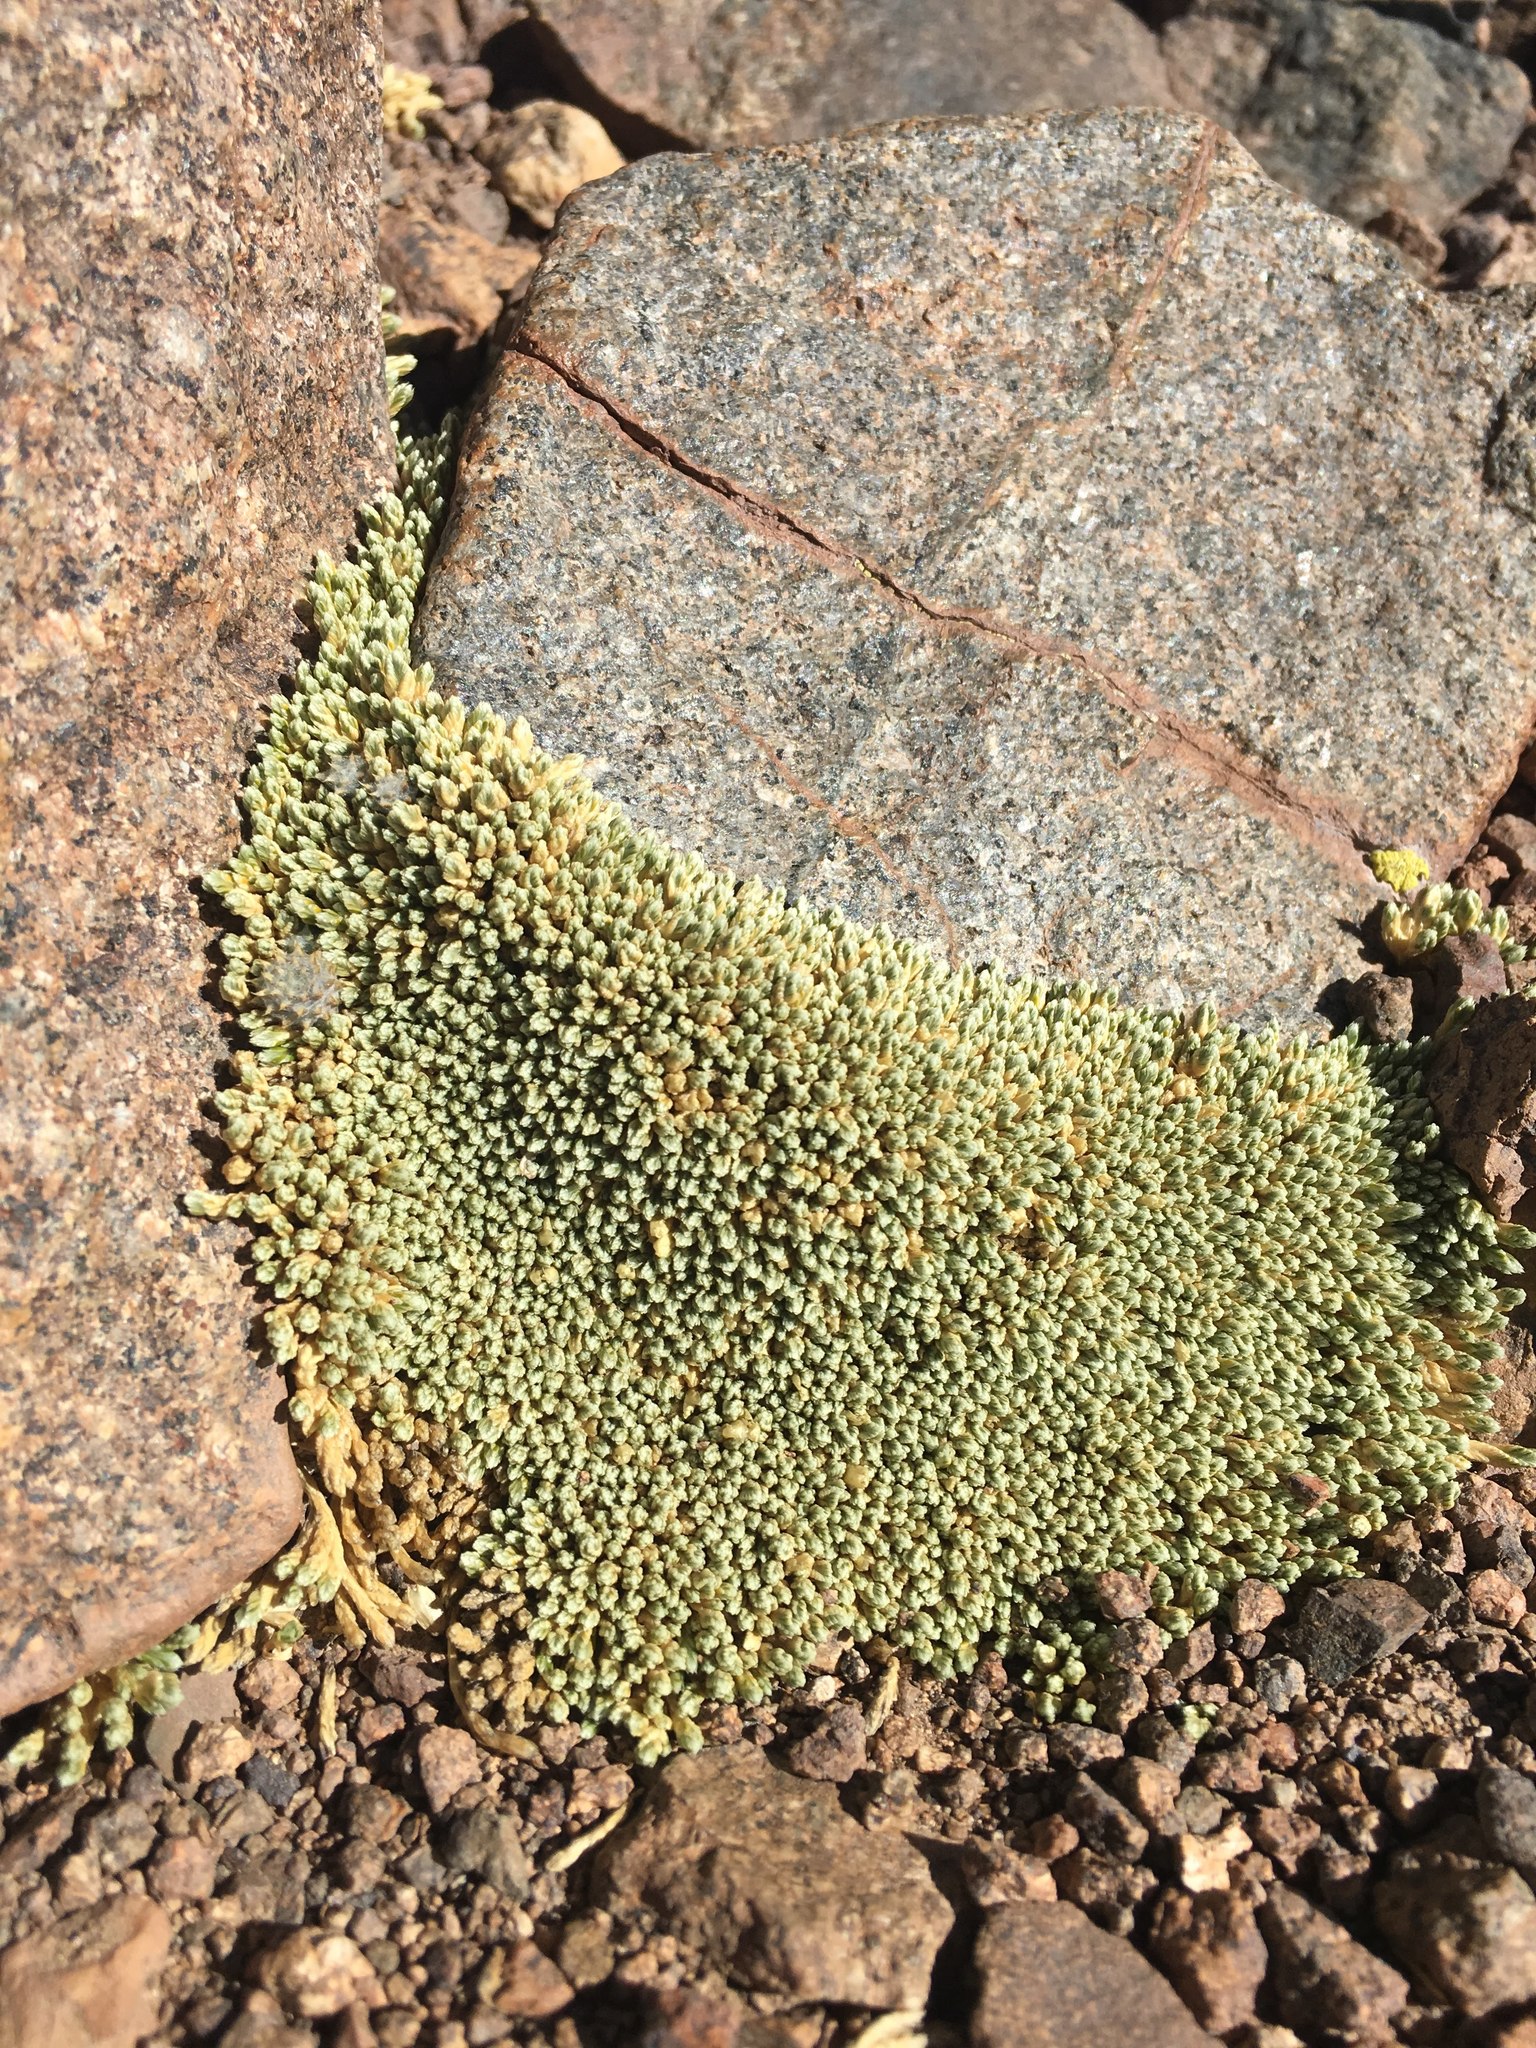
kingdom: Plantae
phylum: Tracheophyta
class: Magnoliopsida
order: Caryophyllales
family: Caryophyllaceae
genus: Pycnophyllum
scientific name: Pycnophyllum bryoides
